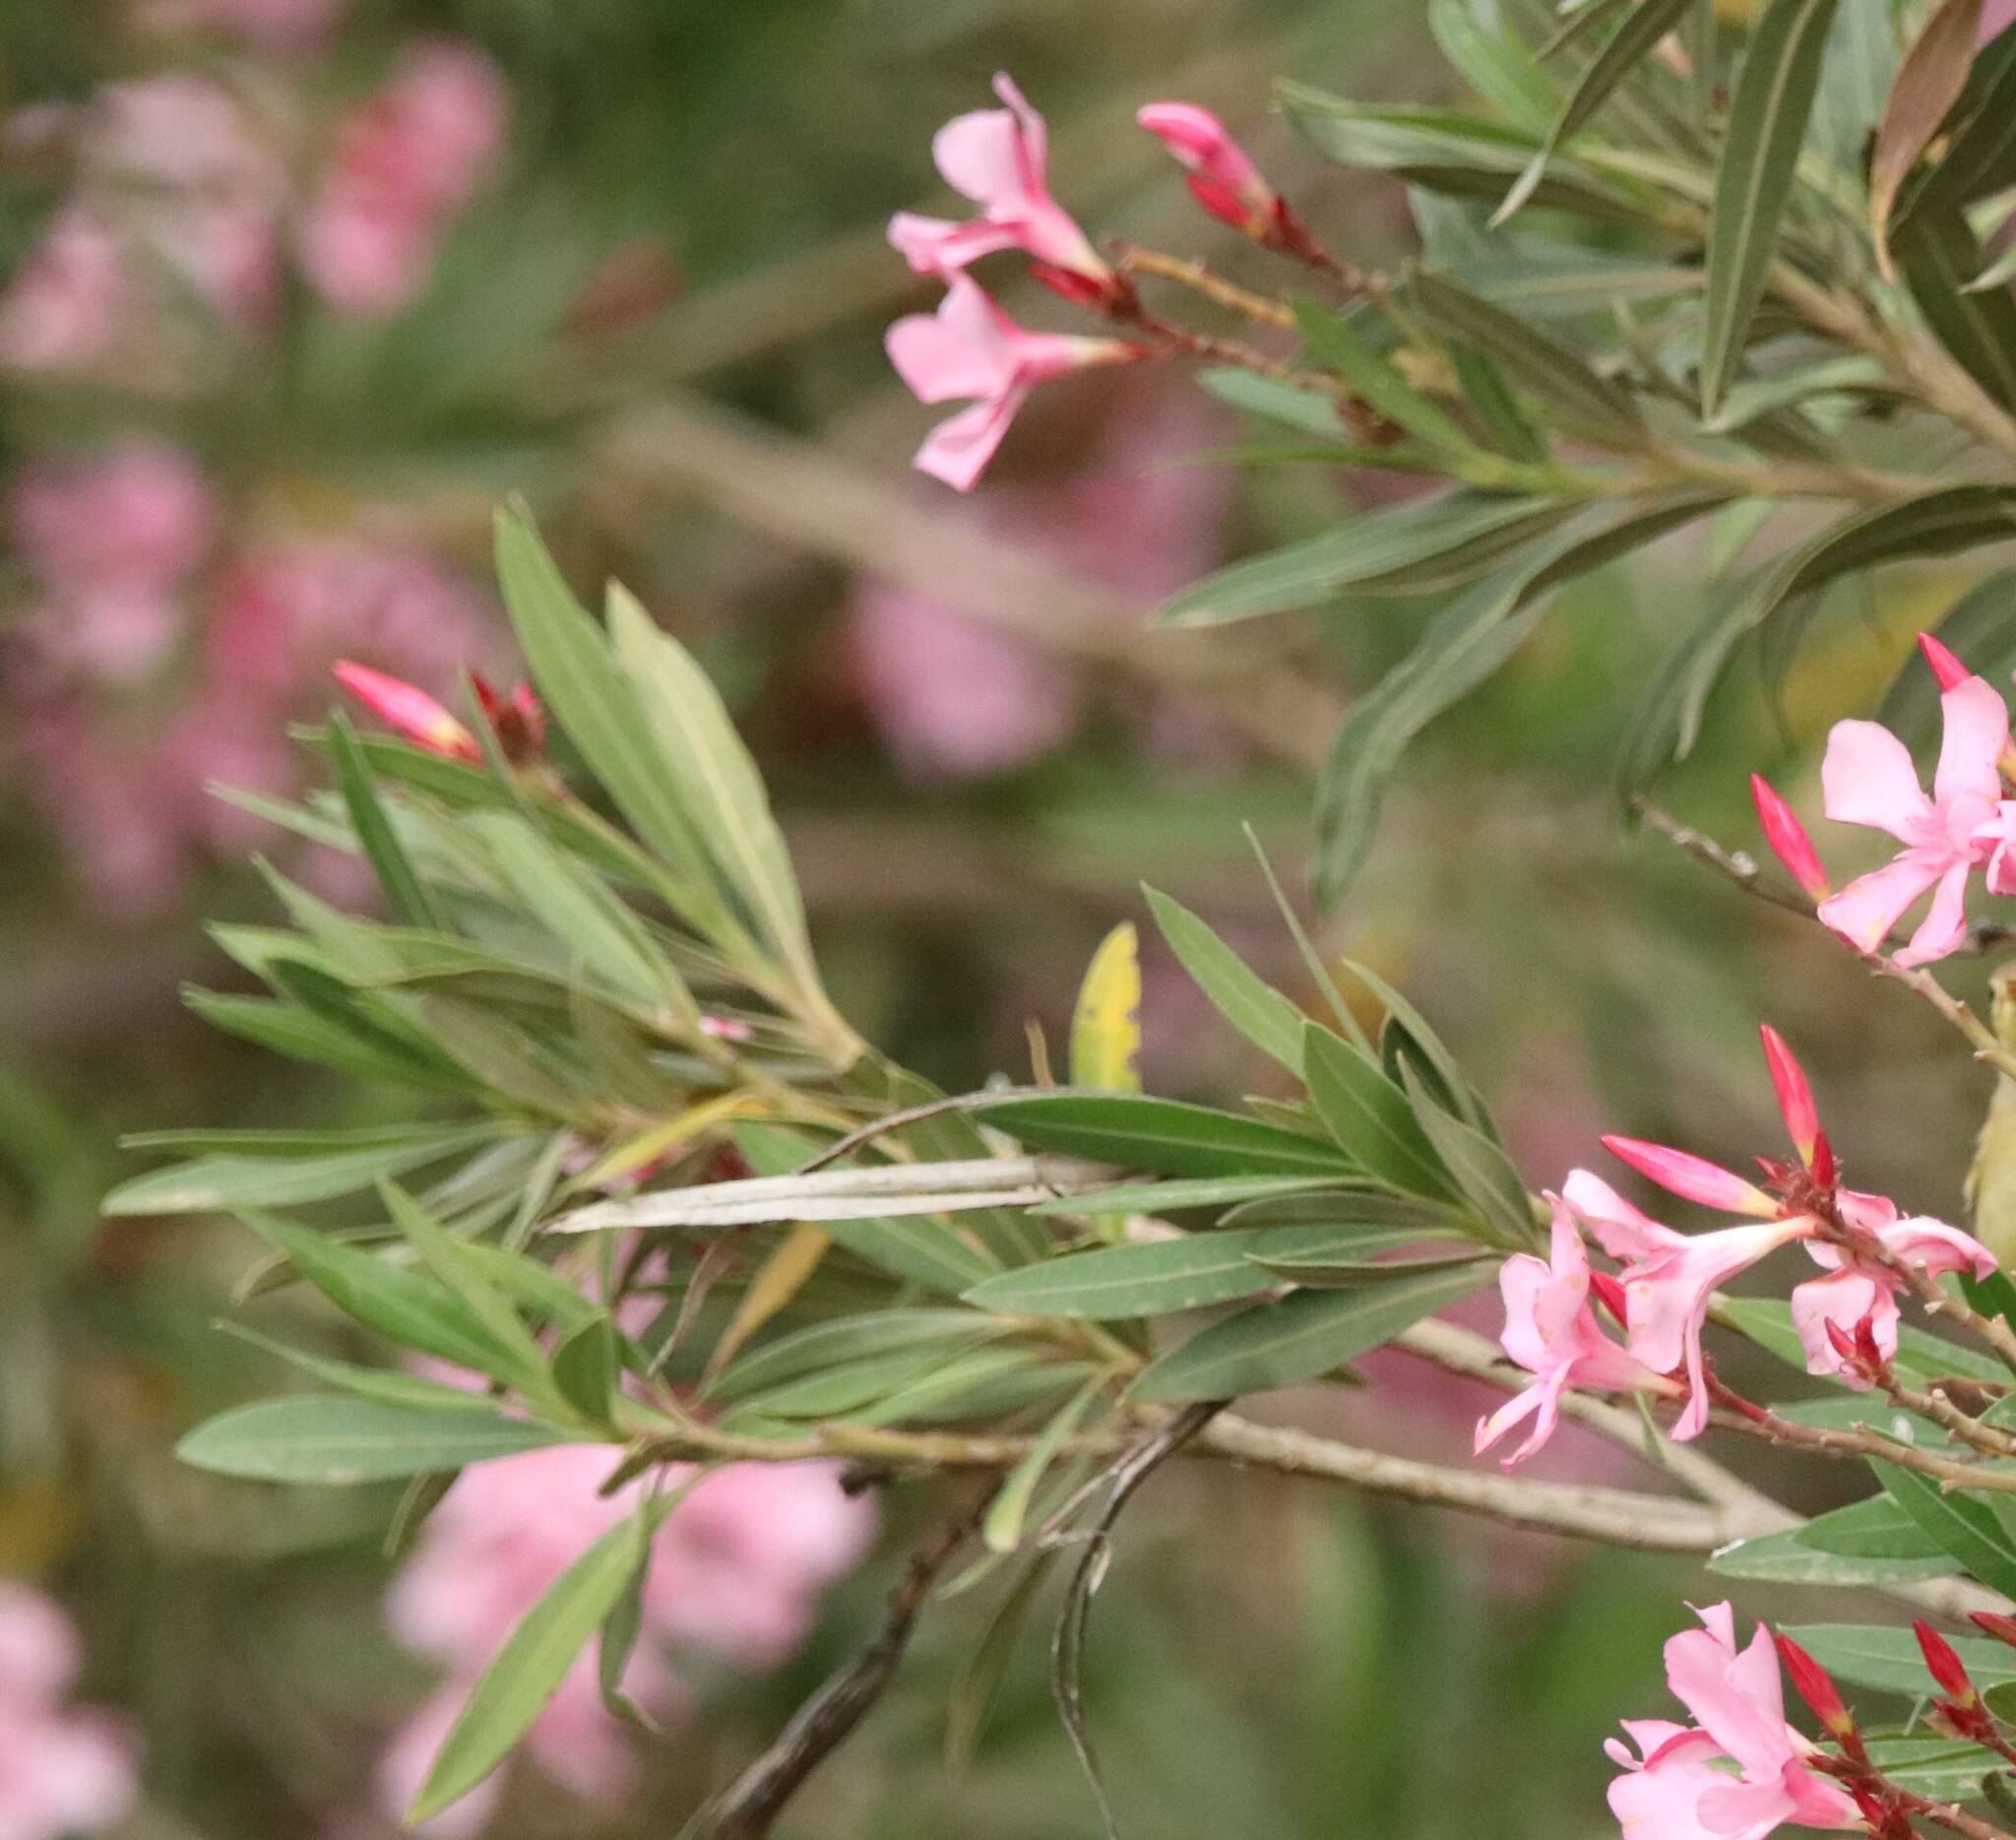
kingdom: Plantae
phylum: Tracheophyta
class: Magnoliopsida
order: Gentianales
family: Apocynaceae
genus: Nerium
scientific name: Nerium oleander
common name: Oleander
